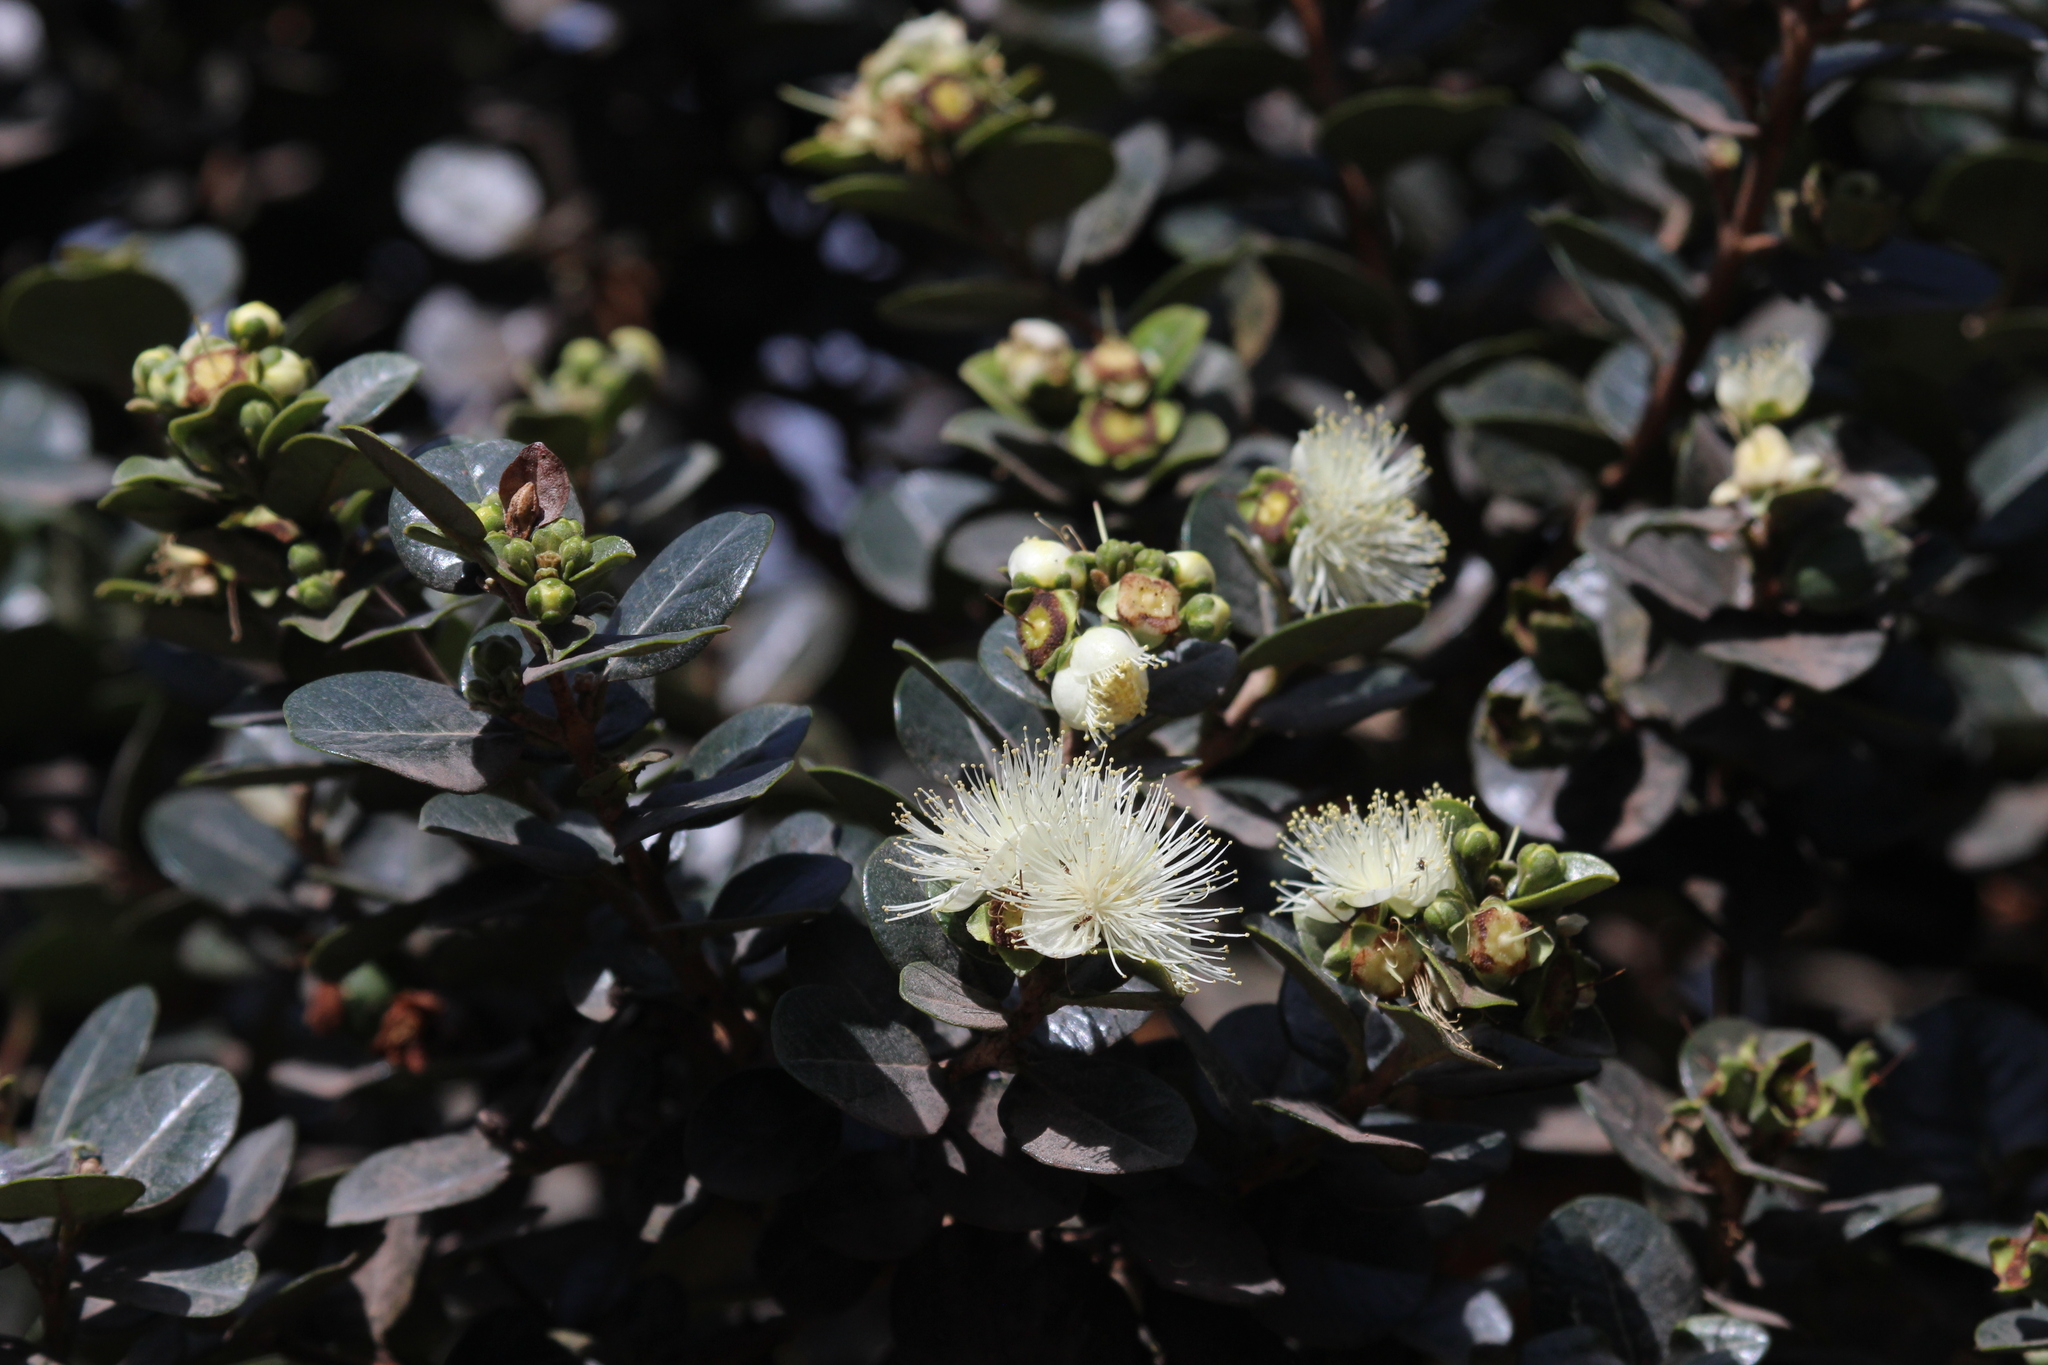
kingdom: Plantae
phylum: Tracheophyta
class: Magnoliopsida
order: Myrtales
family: Myrtaceae
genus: Myrcianthes
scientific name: Myrcianthes oreophila
